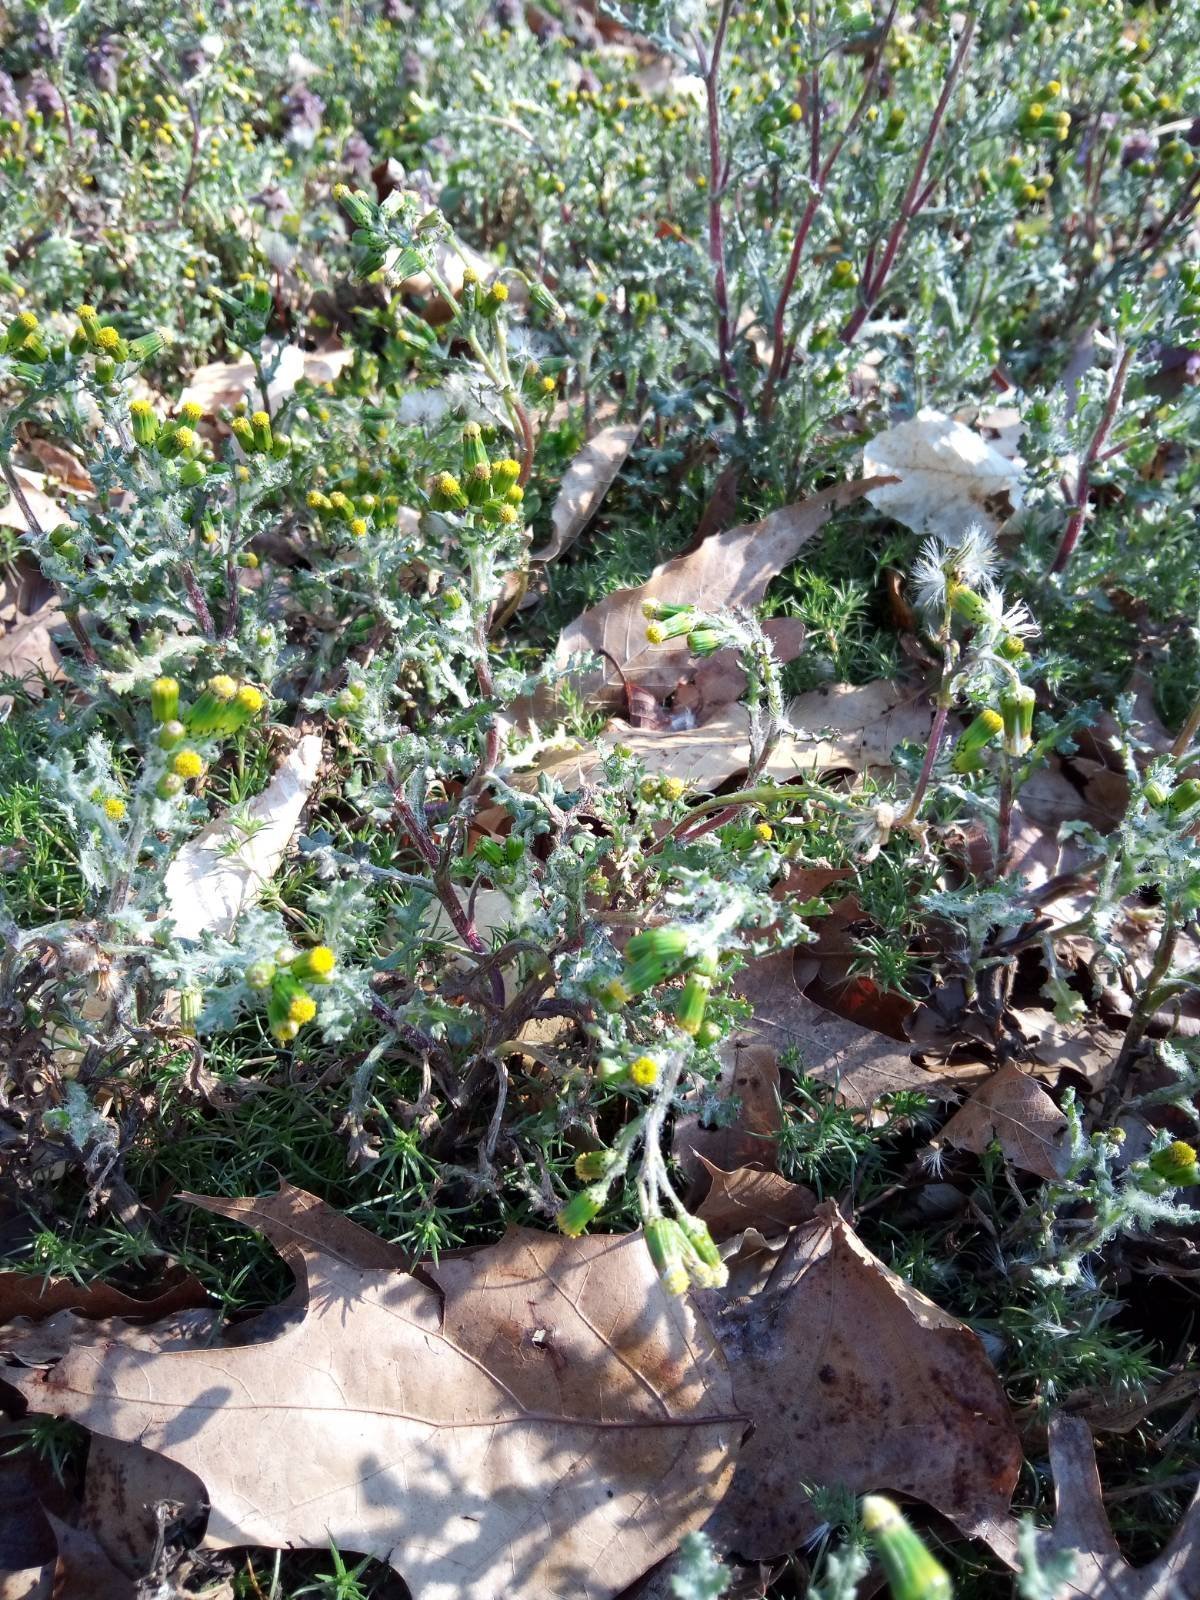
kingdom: Plantae
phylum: Tracheophyta
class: Magnoliopsida
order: Asterales
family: Asteraceae
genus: Senecio
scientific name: Senecio vulgaris
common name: Old-man-in-the-spring
